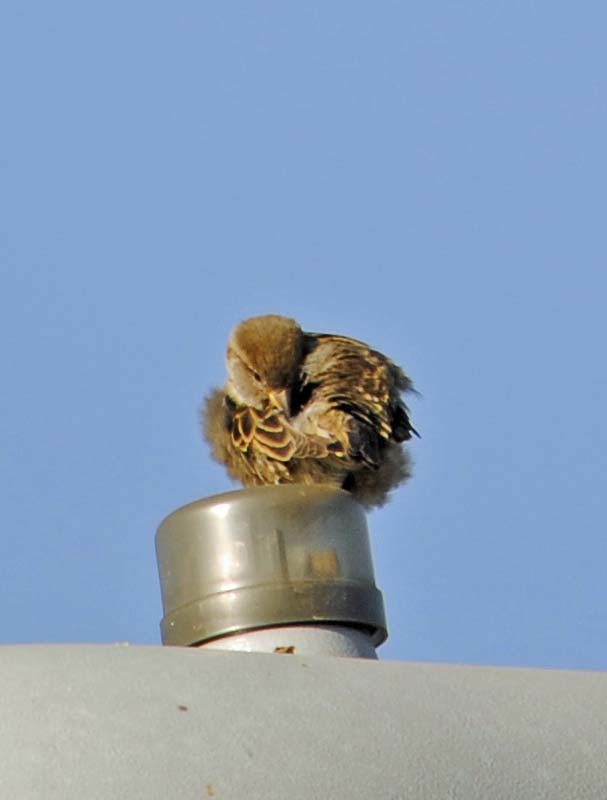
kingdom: Animalia
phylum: Chordata
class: Aves
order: Passeriformes
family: Passeridae
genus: Passer
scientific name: Passer domesticus
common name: House sparrow
